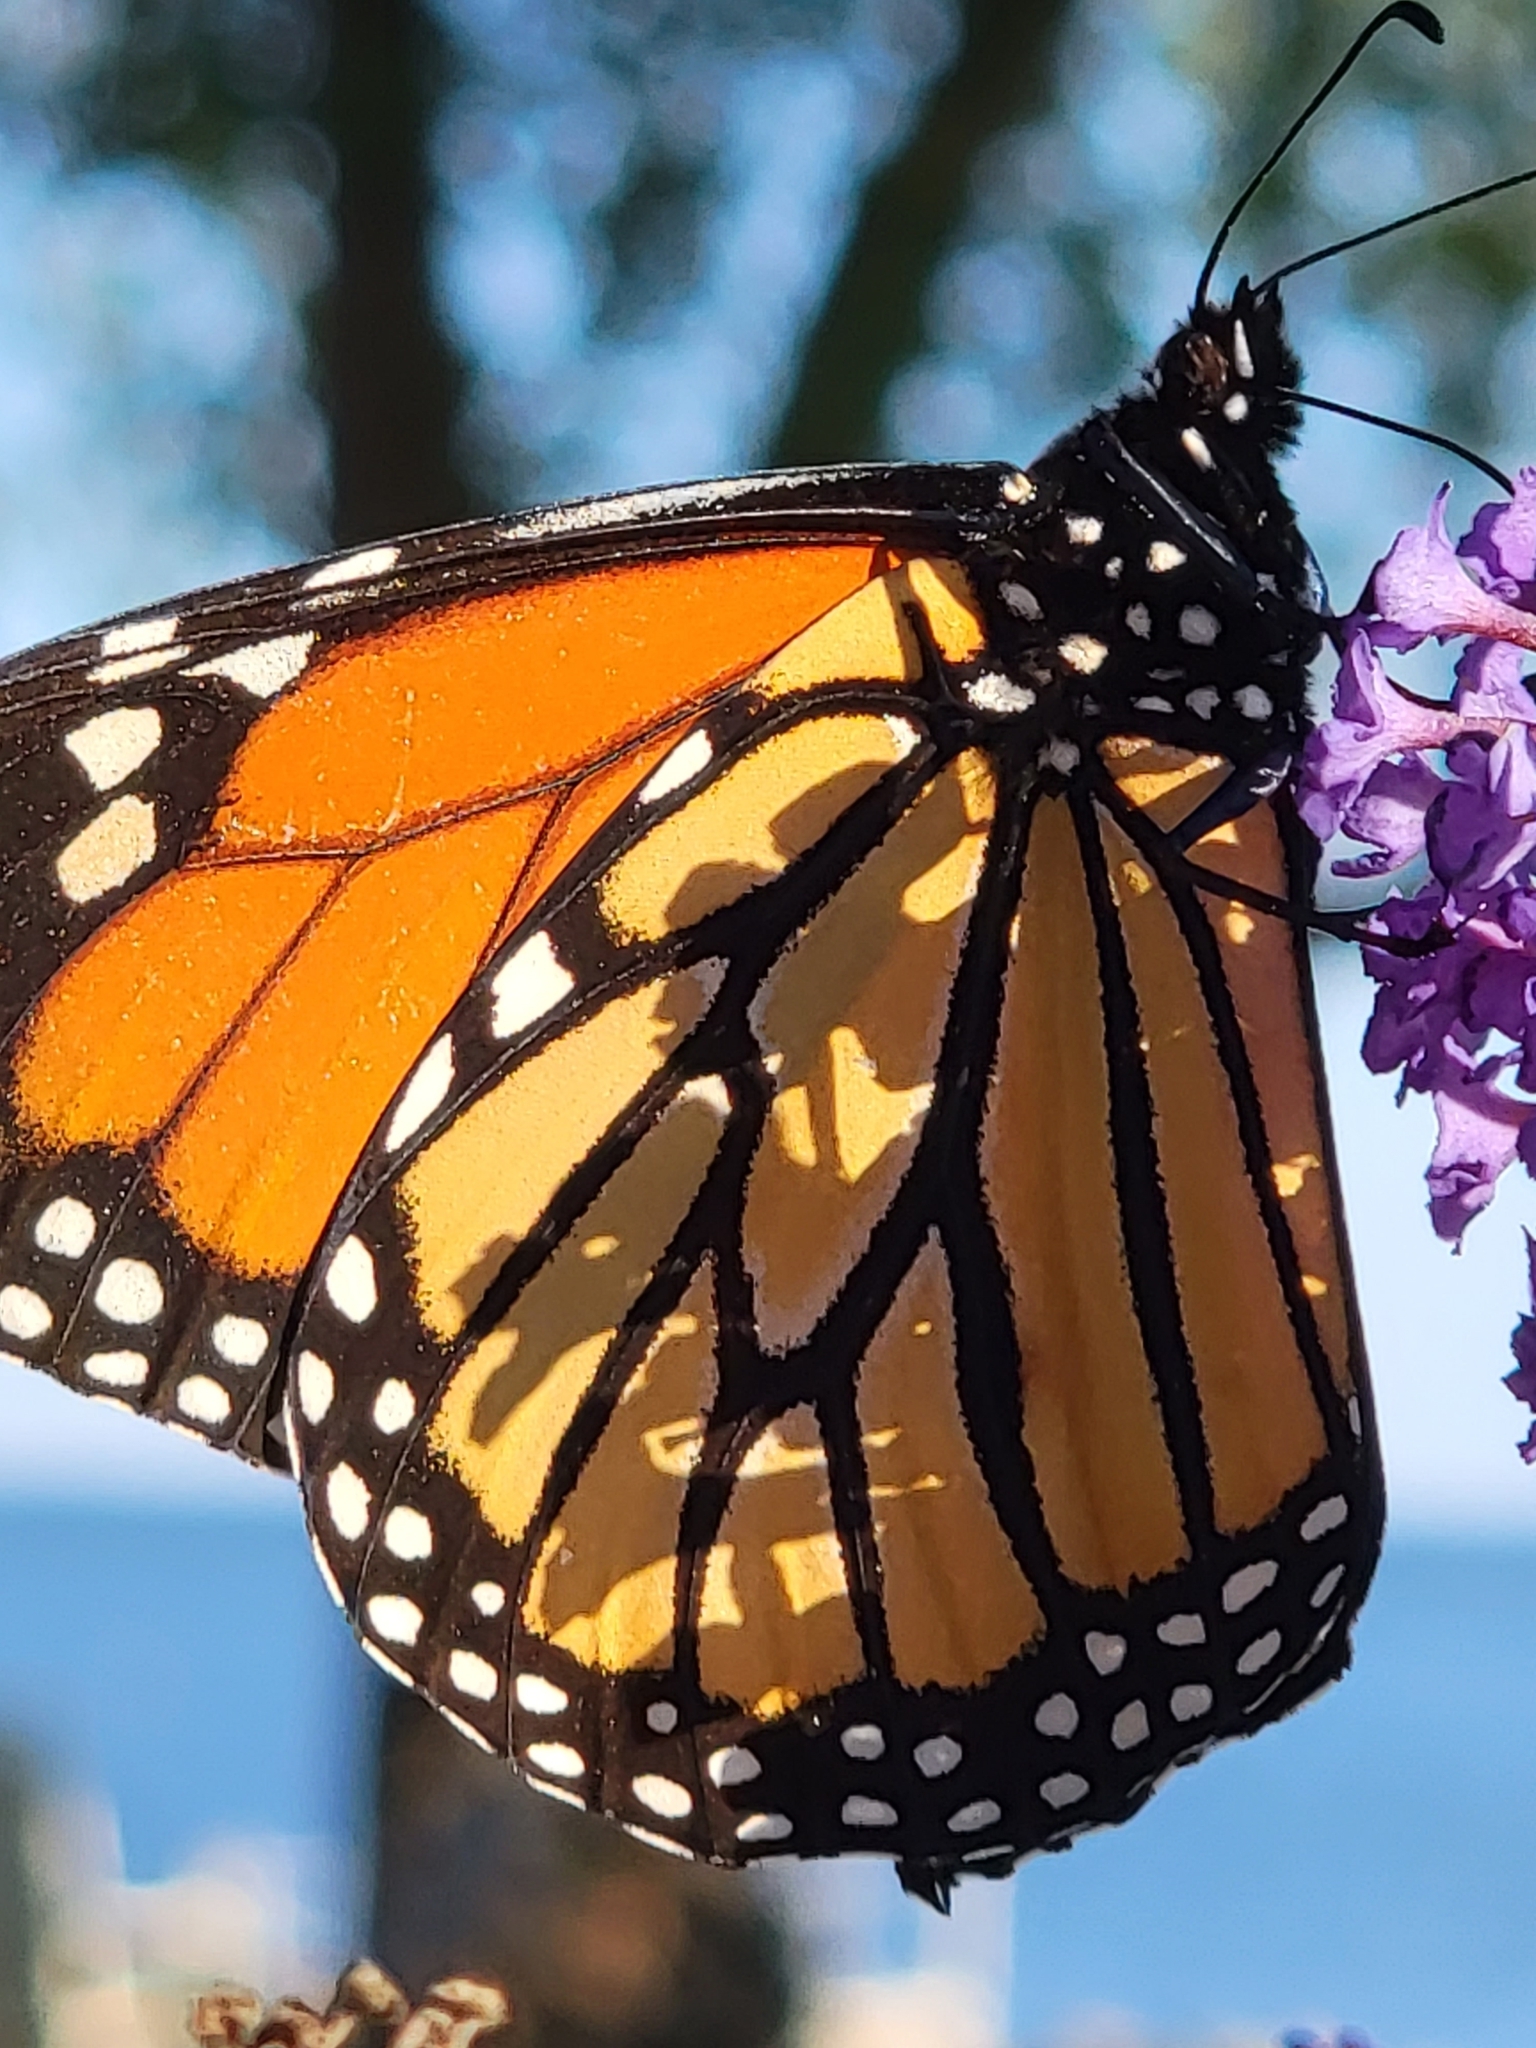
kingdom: Animalia
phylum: Arthropoda
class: Insecta
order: Lepidoptera
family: Nymphalidae
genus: Danaus
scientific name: Danaus plexippus
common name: Monarch
